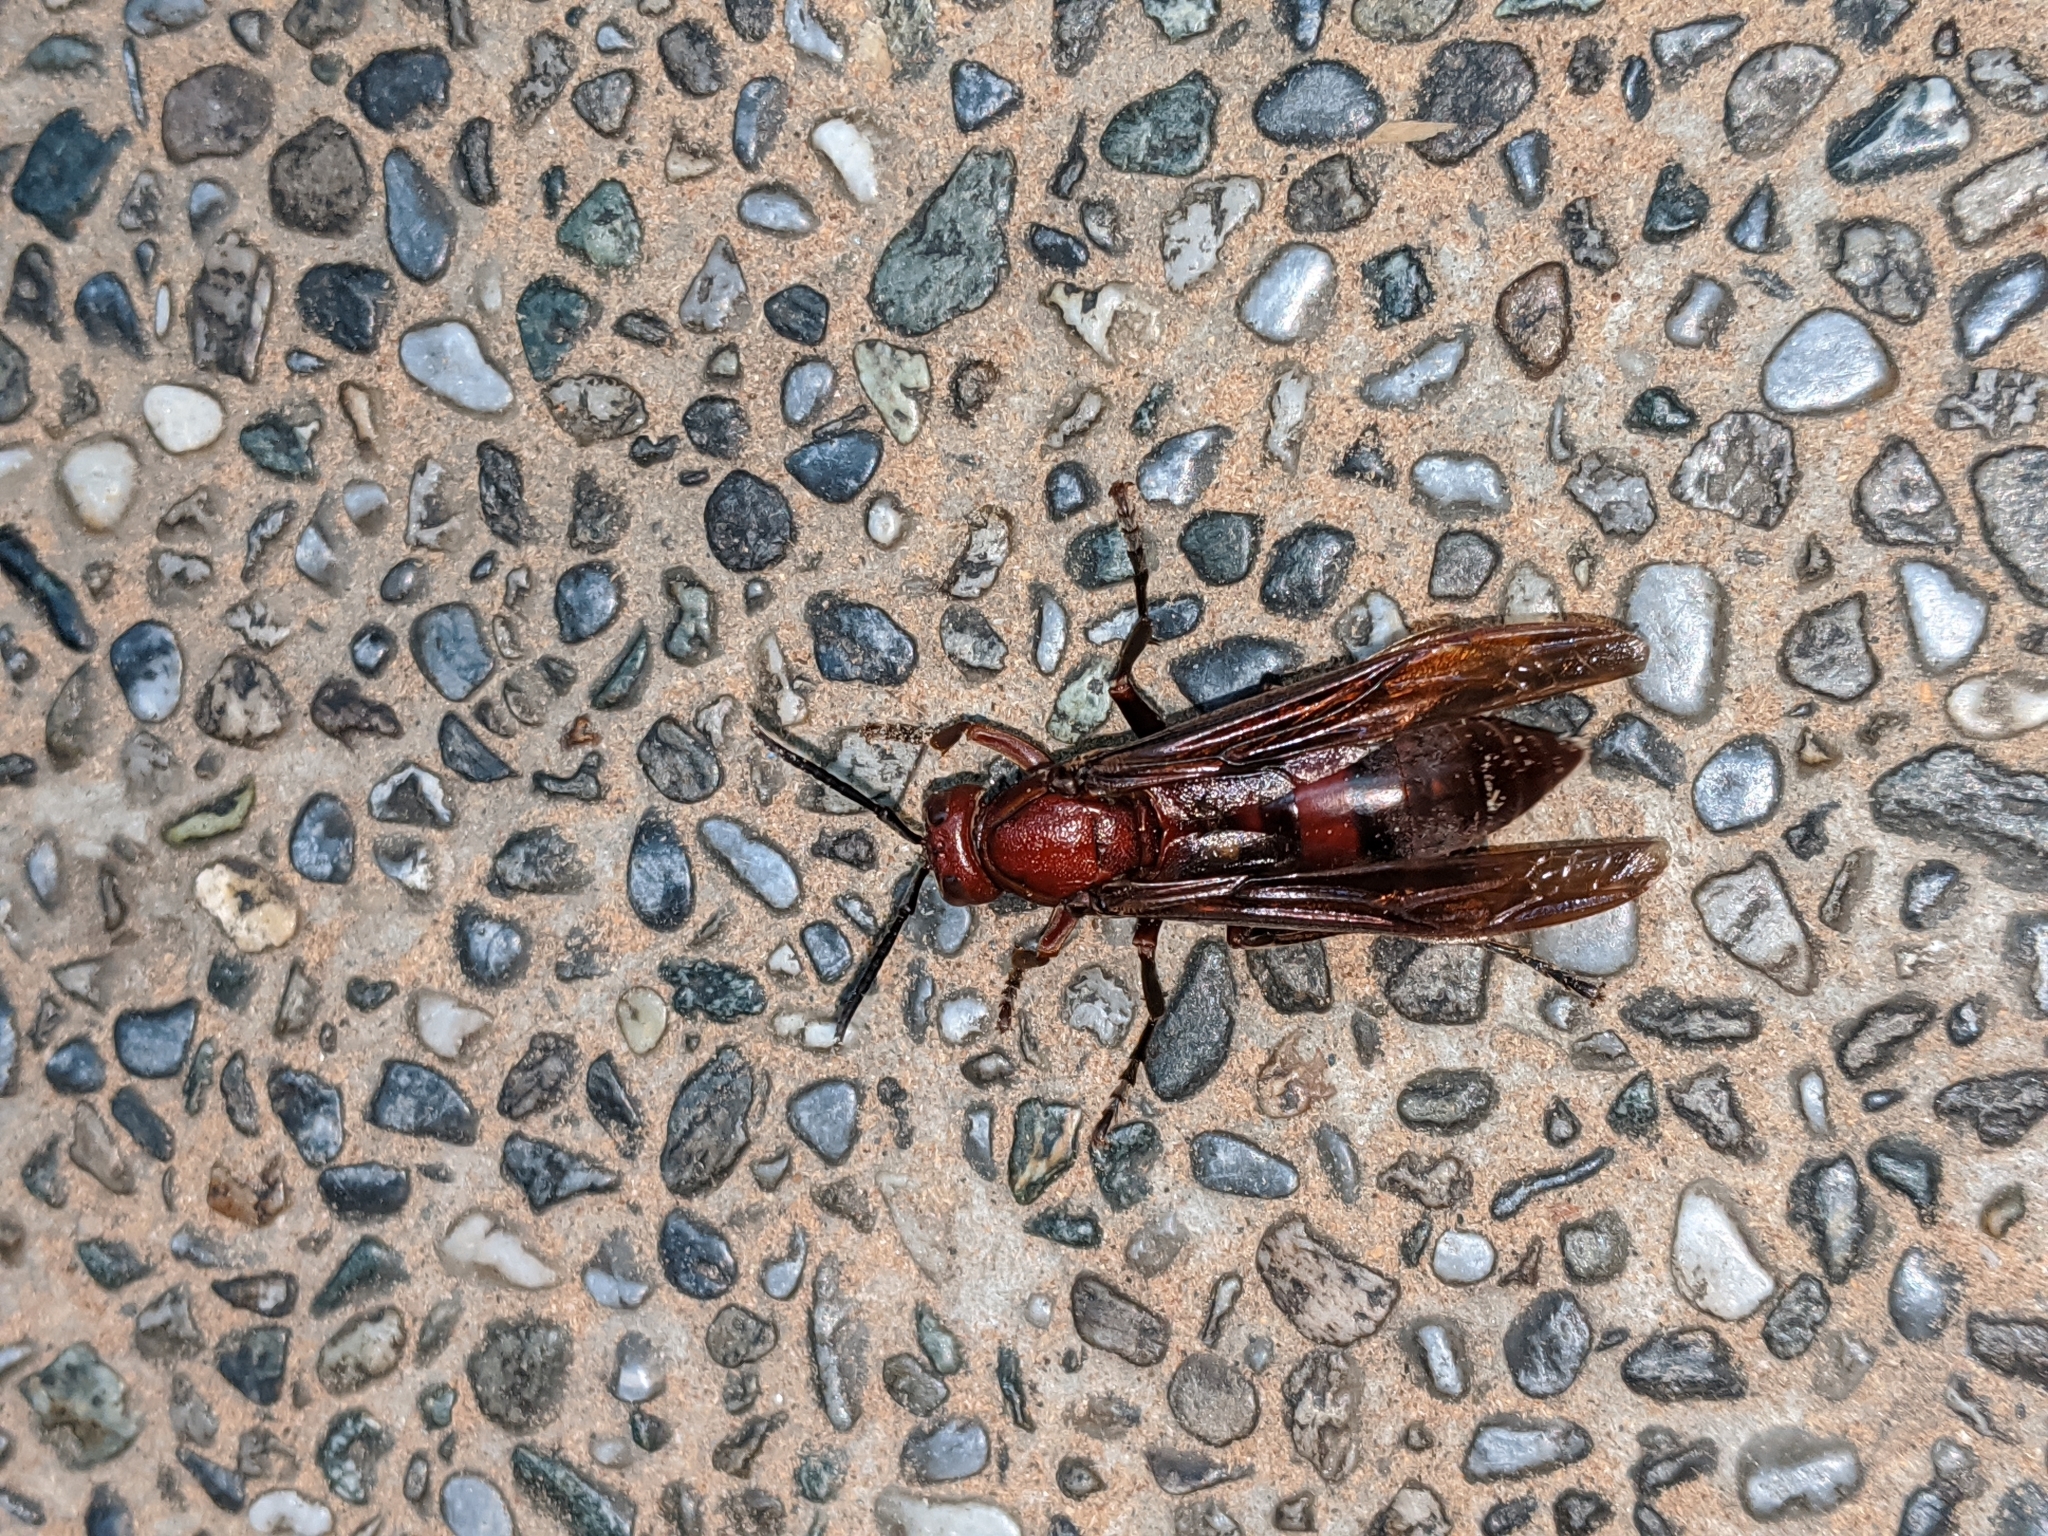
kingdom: Animalia
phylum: Arthropoda
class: Insecta
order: Hymenoptera
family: Eumenidae
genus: Polistes
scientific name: Polistes gigas
